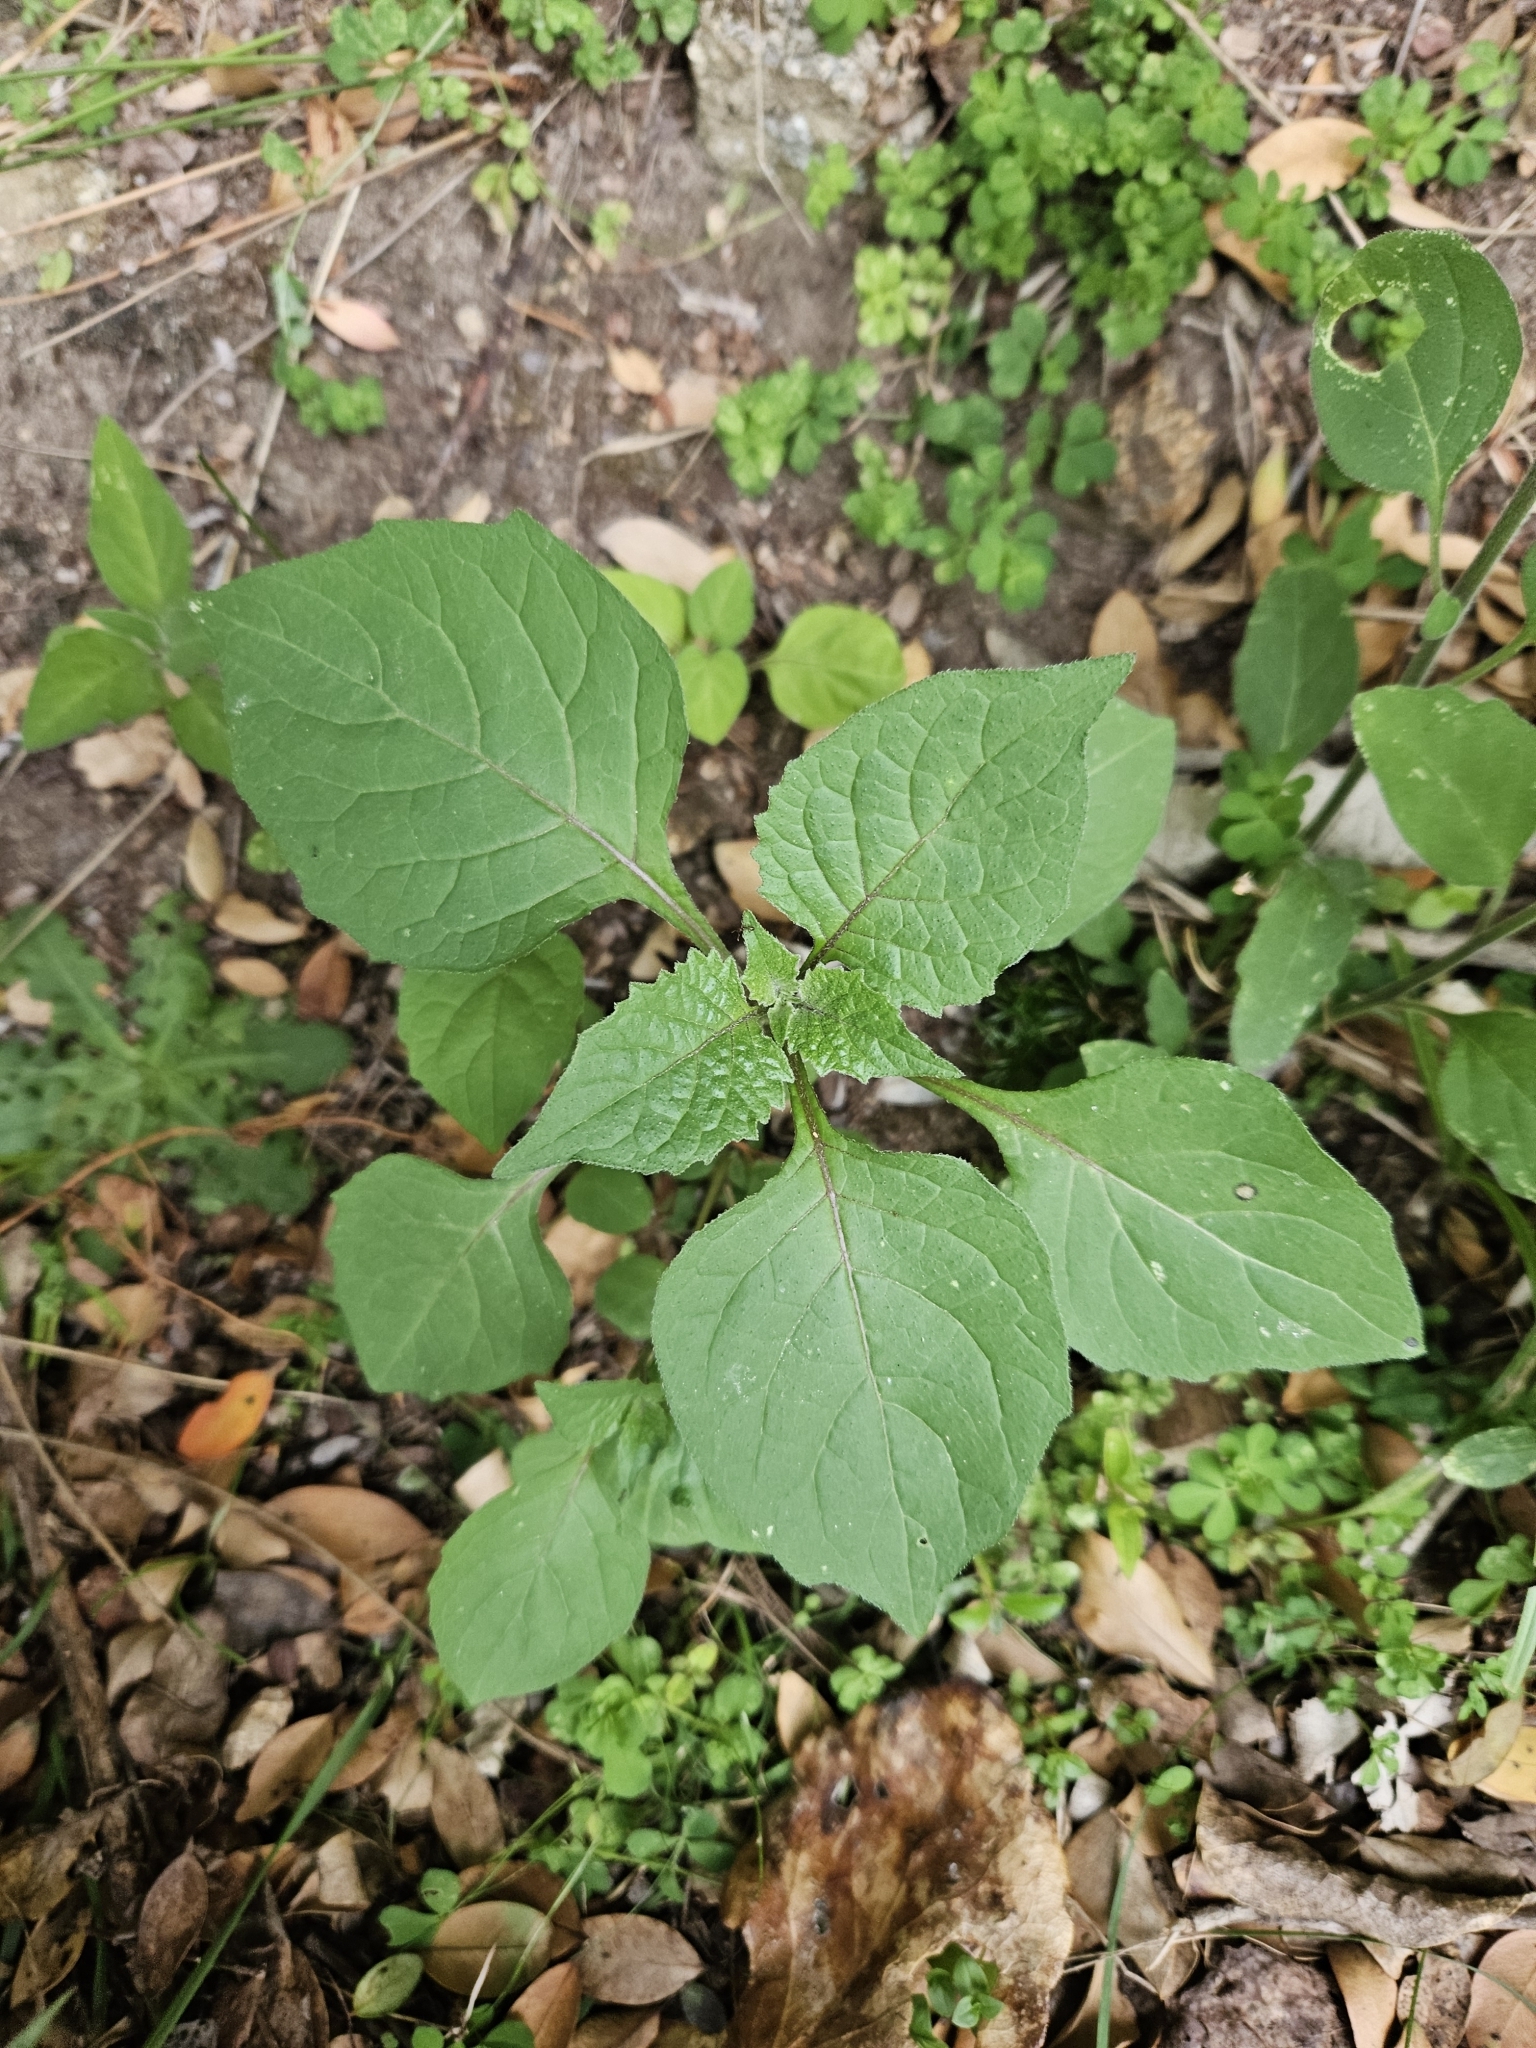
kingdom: Plantae
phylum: Tracheophyta
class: Magnoliopsida
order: Solanales
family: Solanaceae
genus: Solanum
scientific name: Solanum
